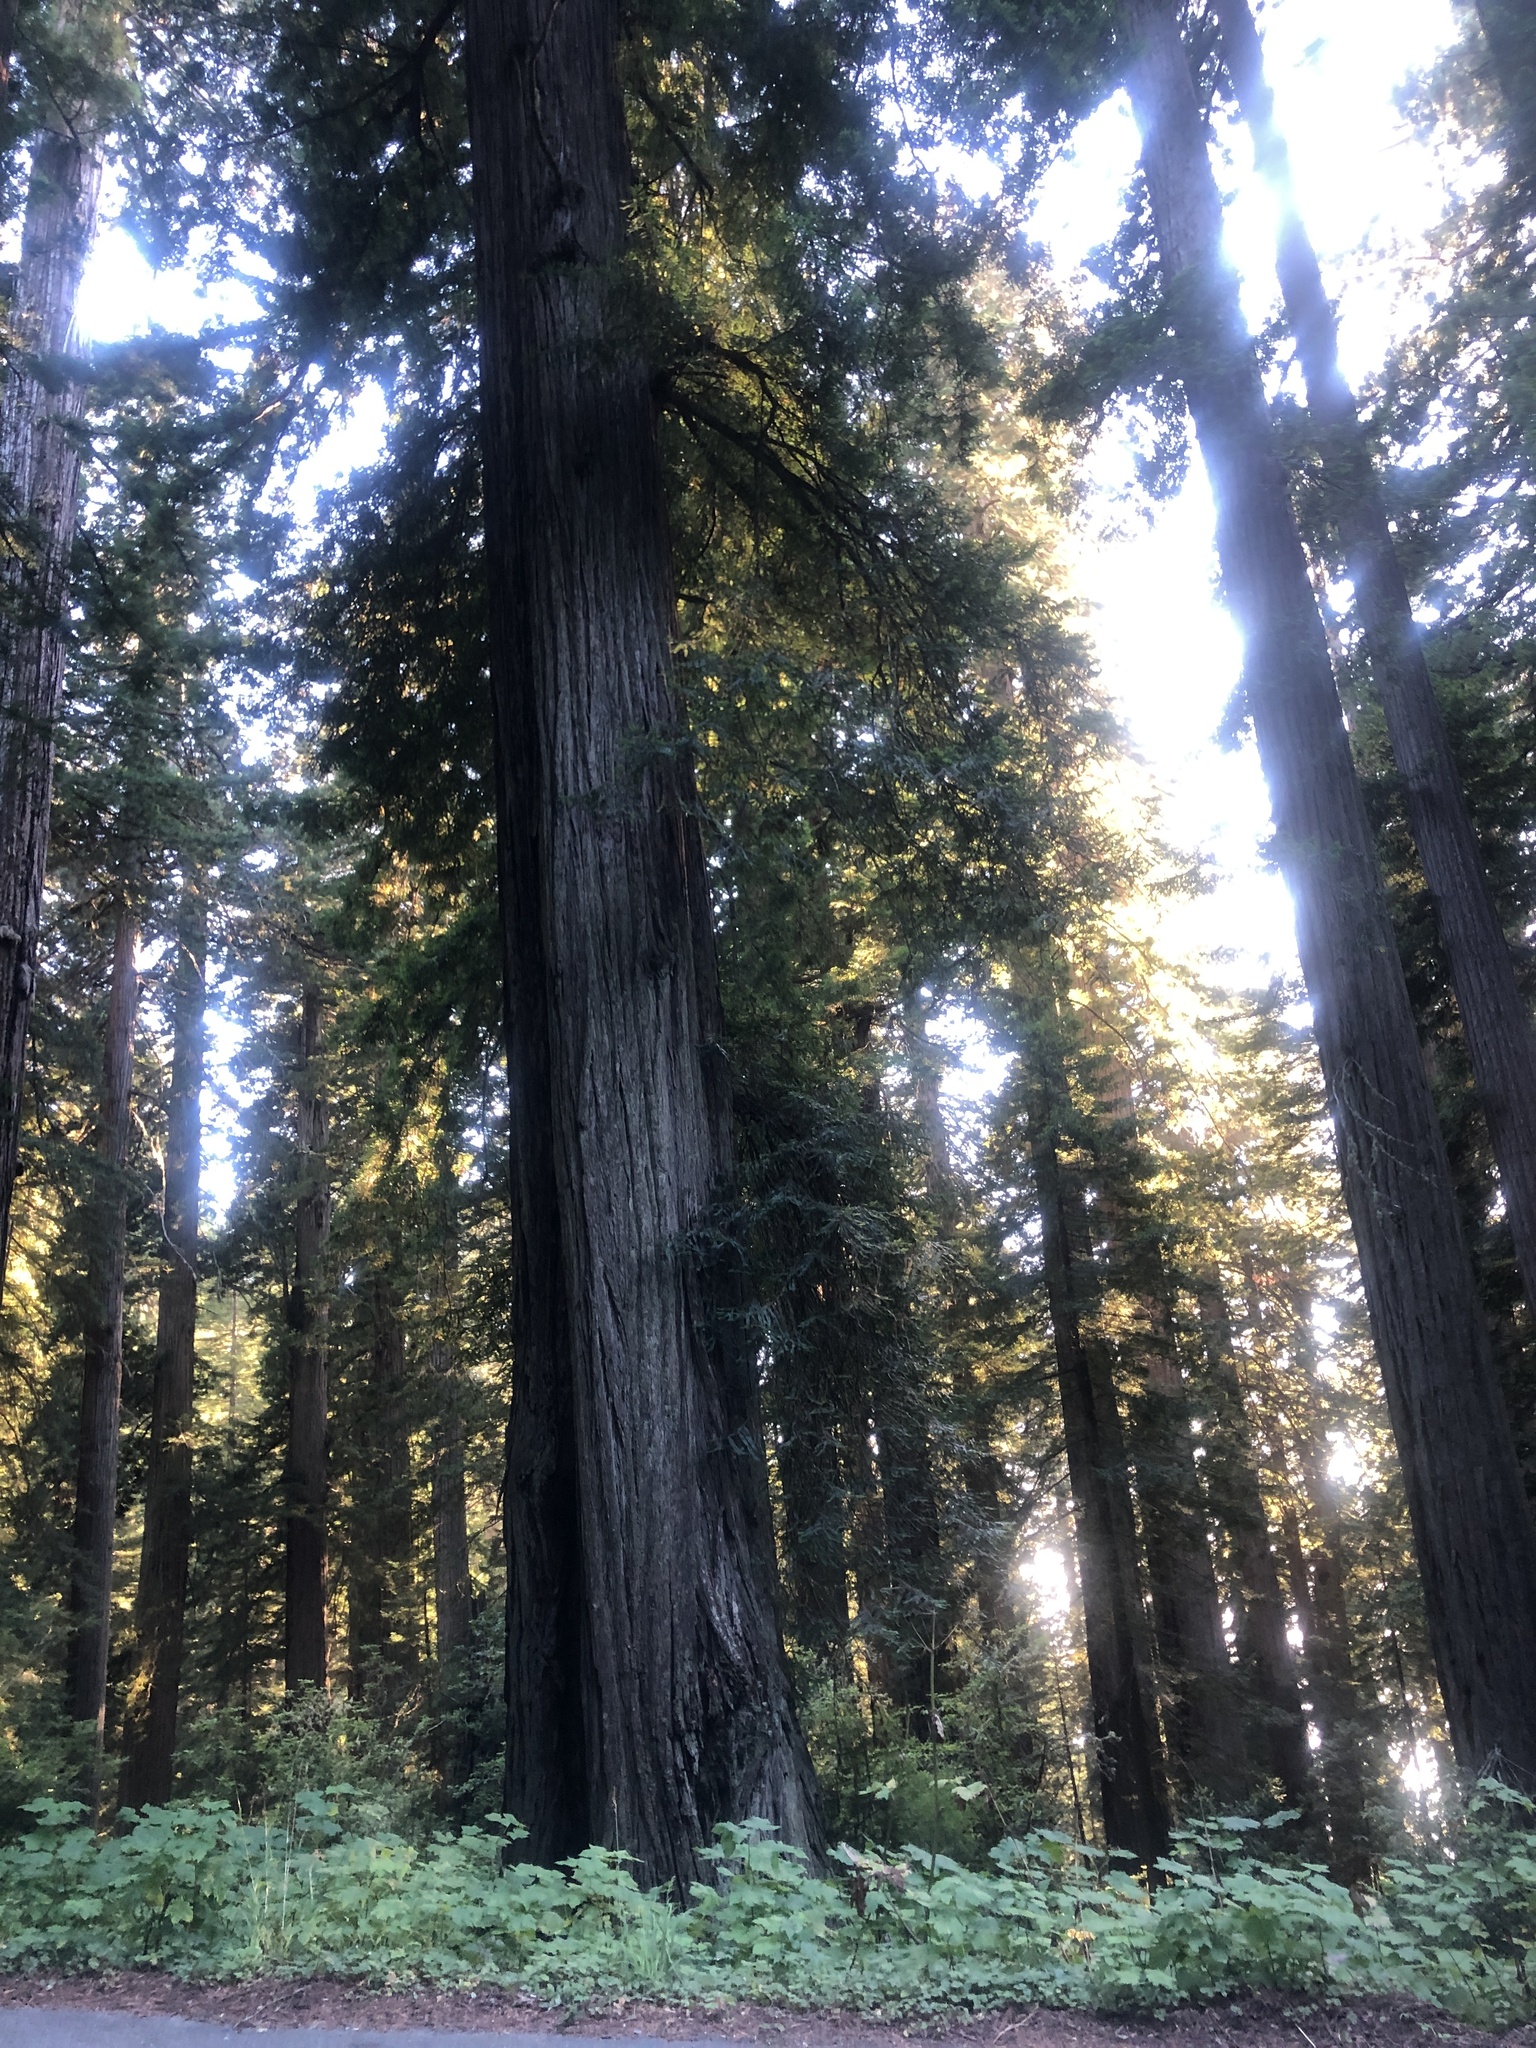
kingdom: Plantae
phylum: Tracheophyta
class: Pinopsida
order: Pinales
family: Cupressaceae
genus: Sequoia
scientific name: Sequoia sempervirens
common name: Coast redwood
